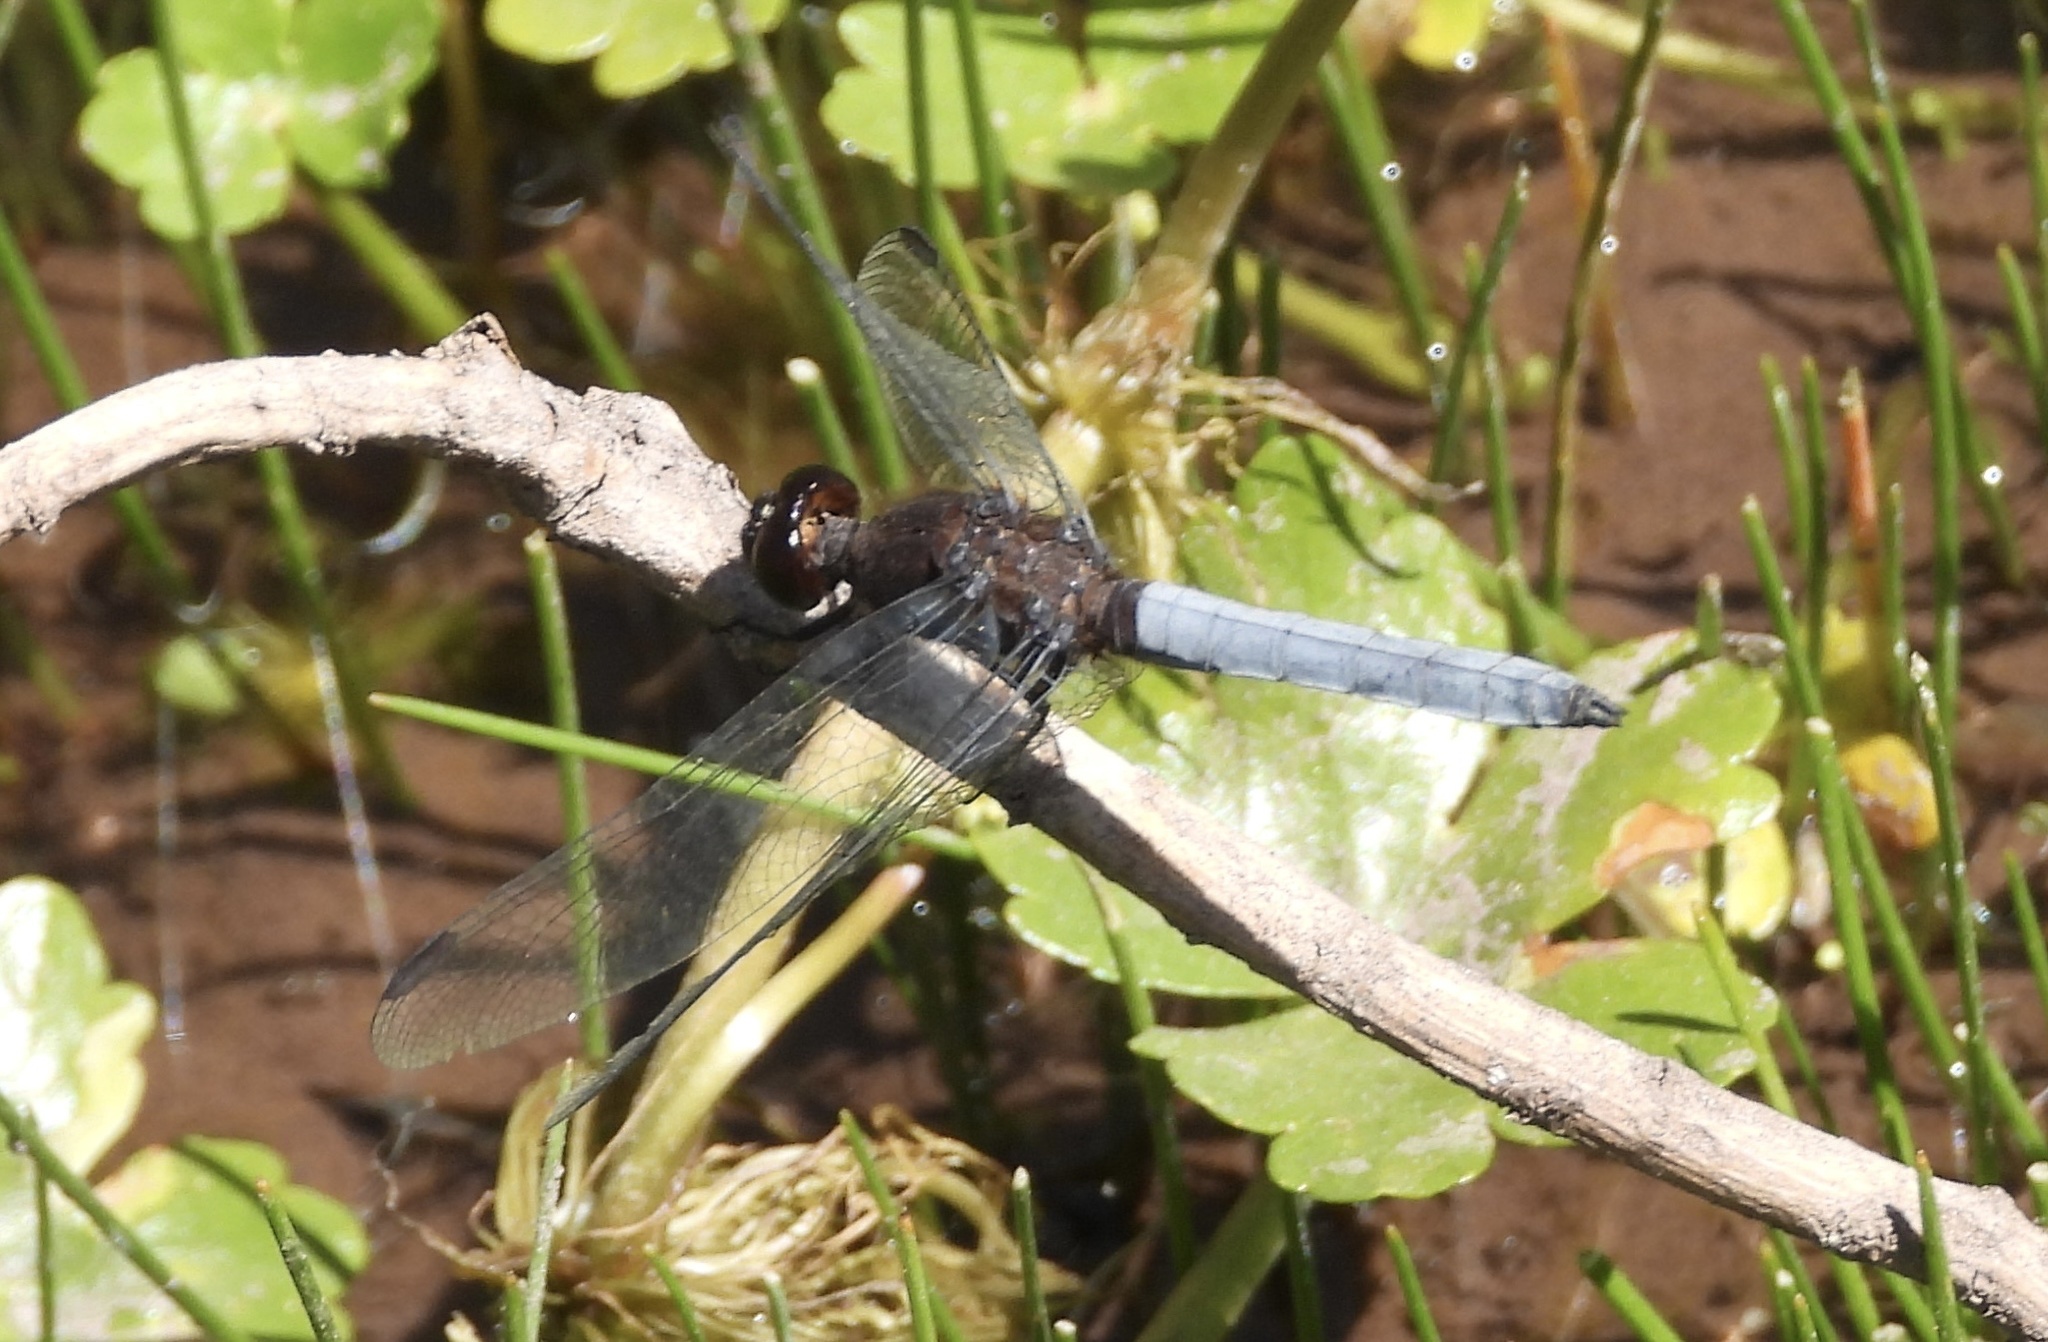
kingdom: Animalia
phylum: Arthropoda
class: Insecta
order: Odonata
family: Libellulidae
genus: Erythrodiplax
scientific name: Erythrodiplax connata
